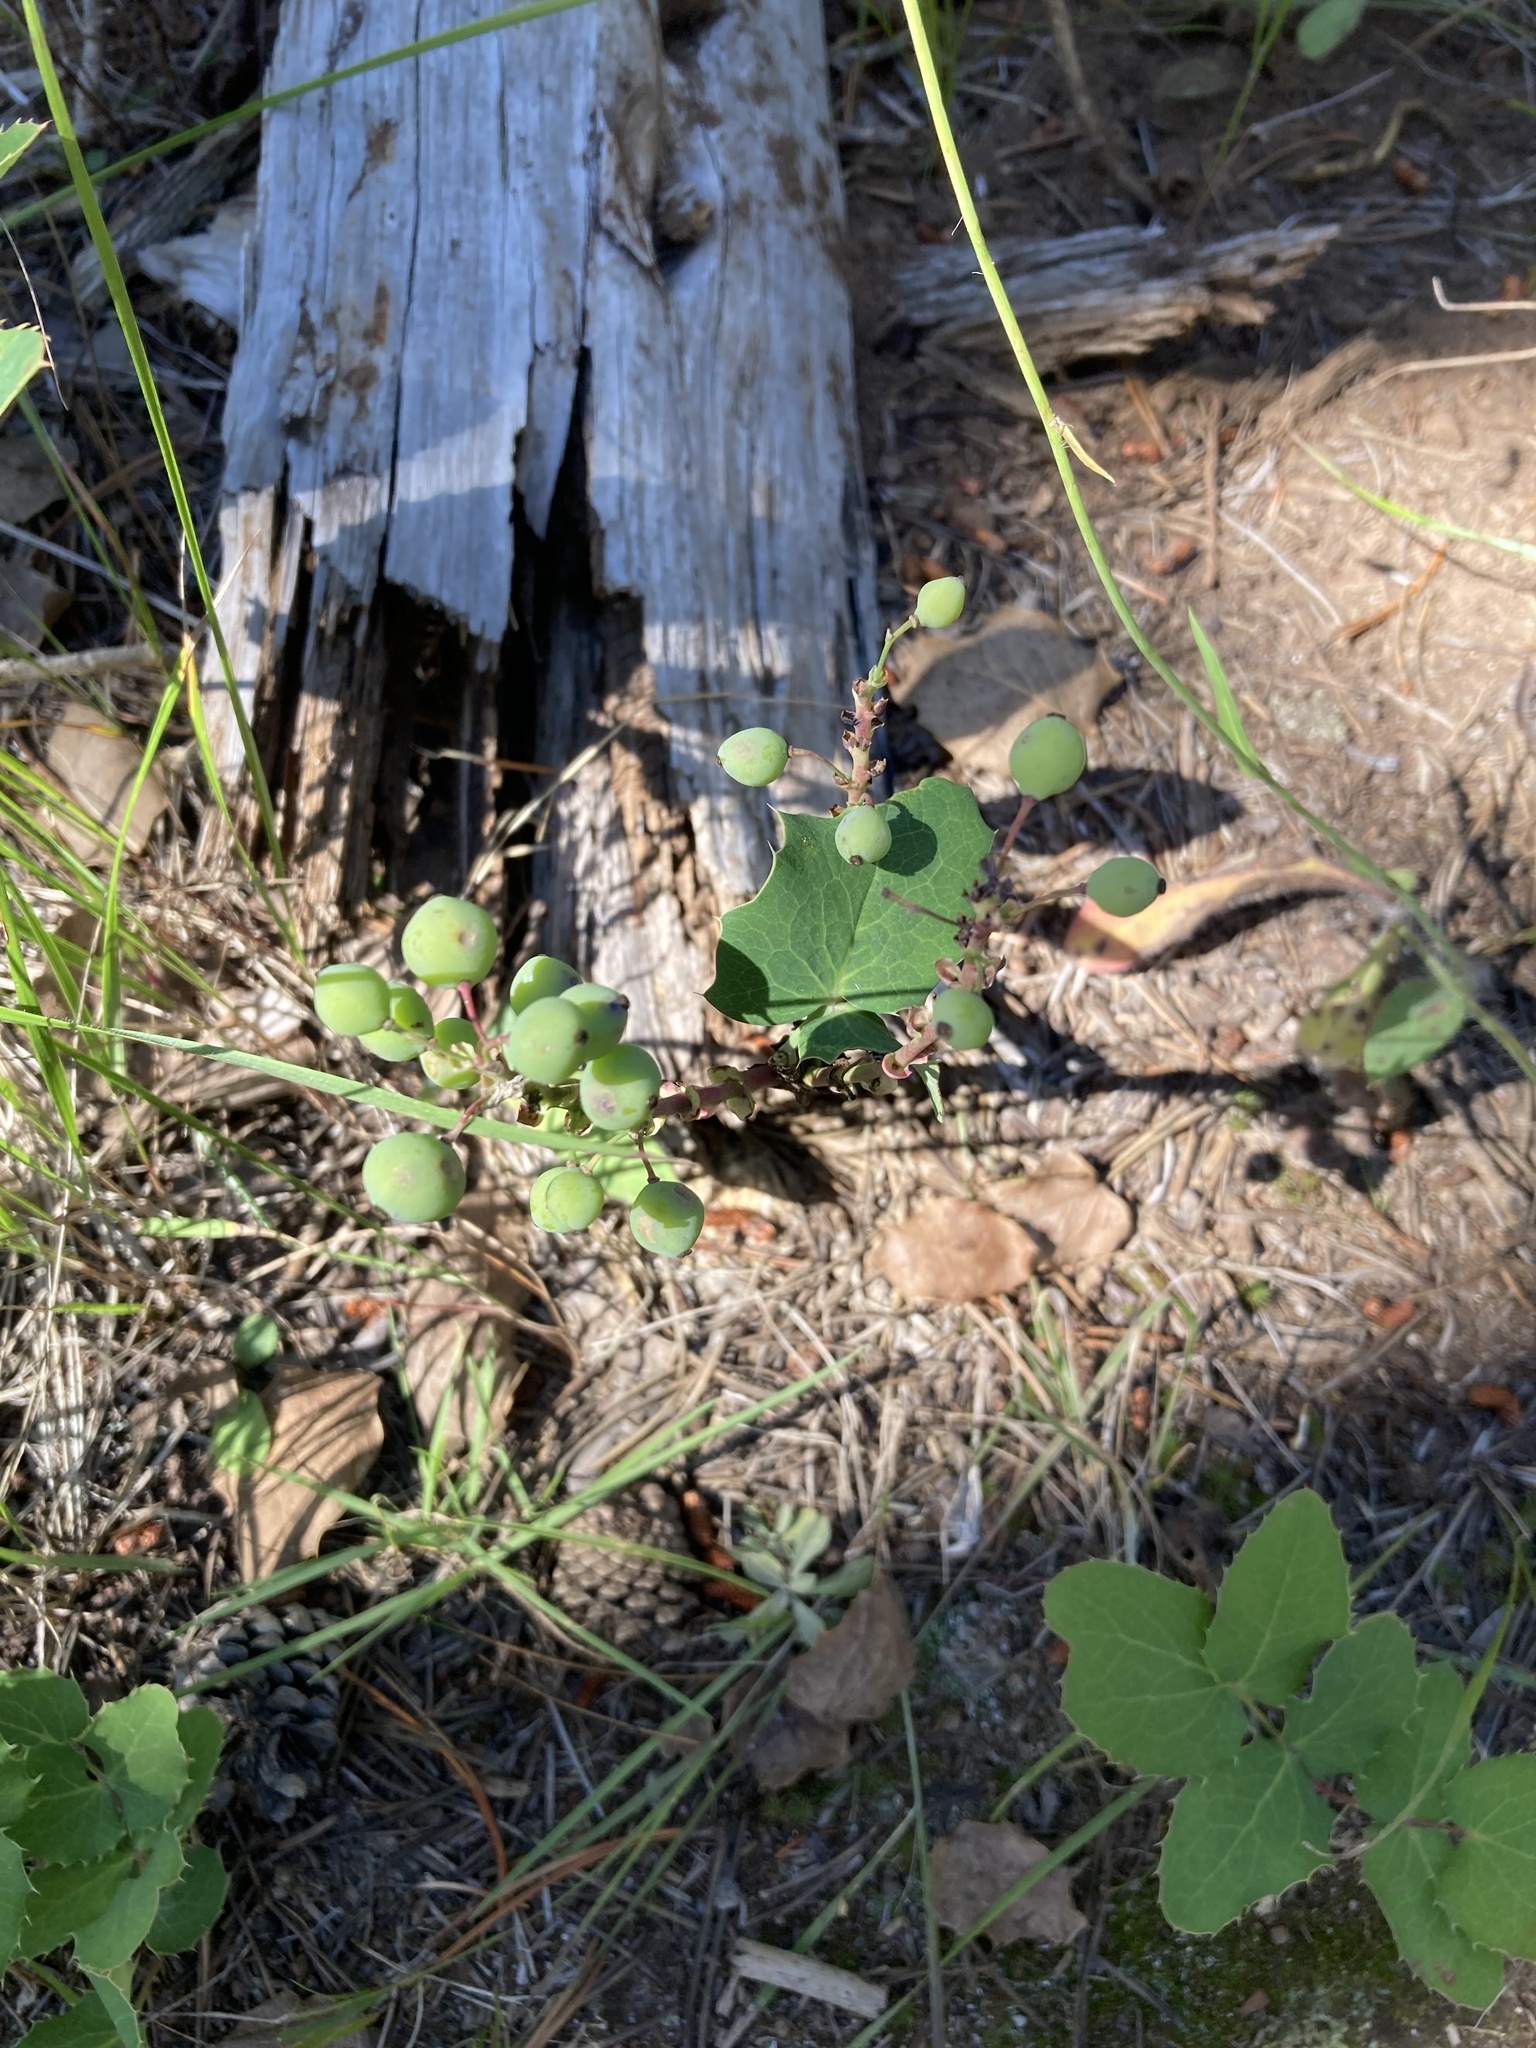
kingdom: Plantae
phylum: Tracheophyta
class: Magnoliopsida
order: Ranunculales
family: Berberidaceae
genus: Mahonia
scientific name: Mahonia repens
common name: Creeping oregon-grape
